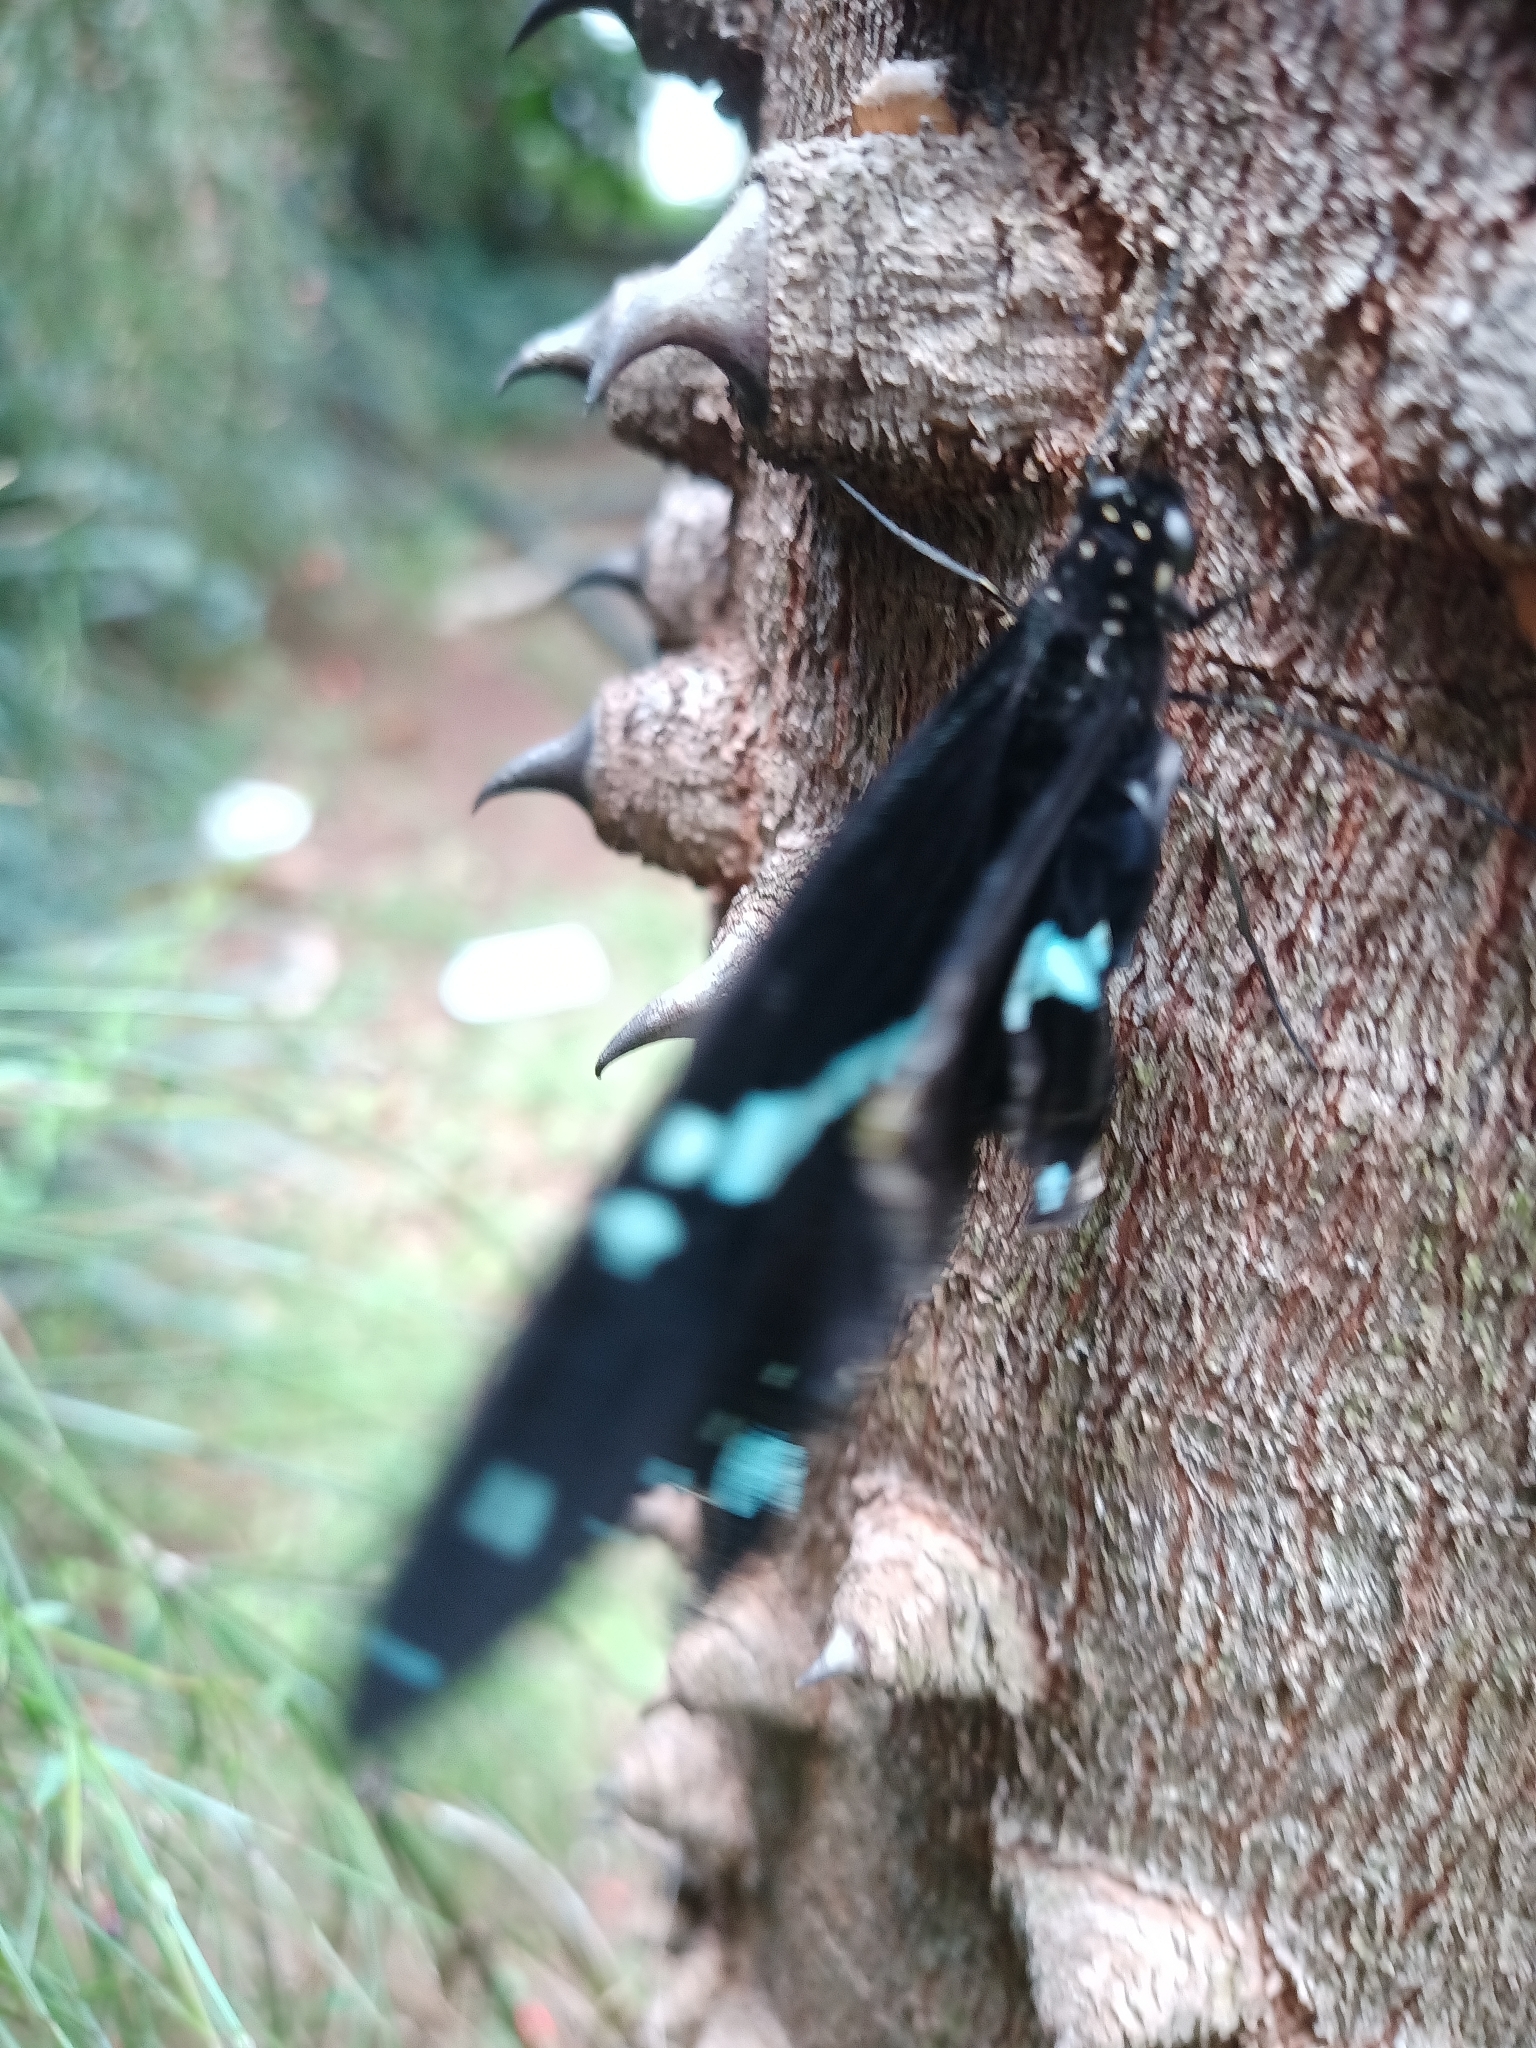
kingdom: Animalia
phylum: Arthropoda
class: Insecta
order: Lepidoptera
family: Papilionidae
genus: Papilio
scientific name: Papilio nireus
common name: Greenbanded swallowtail
